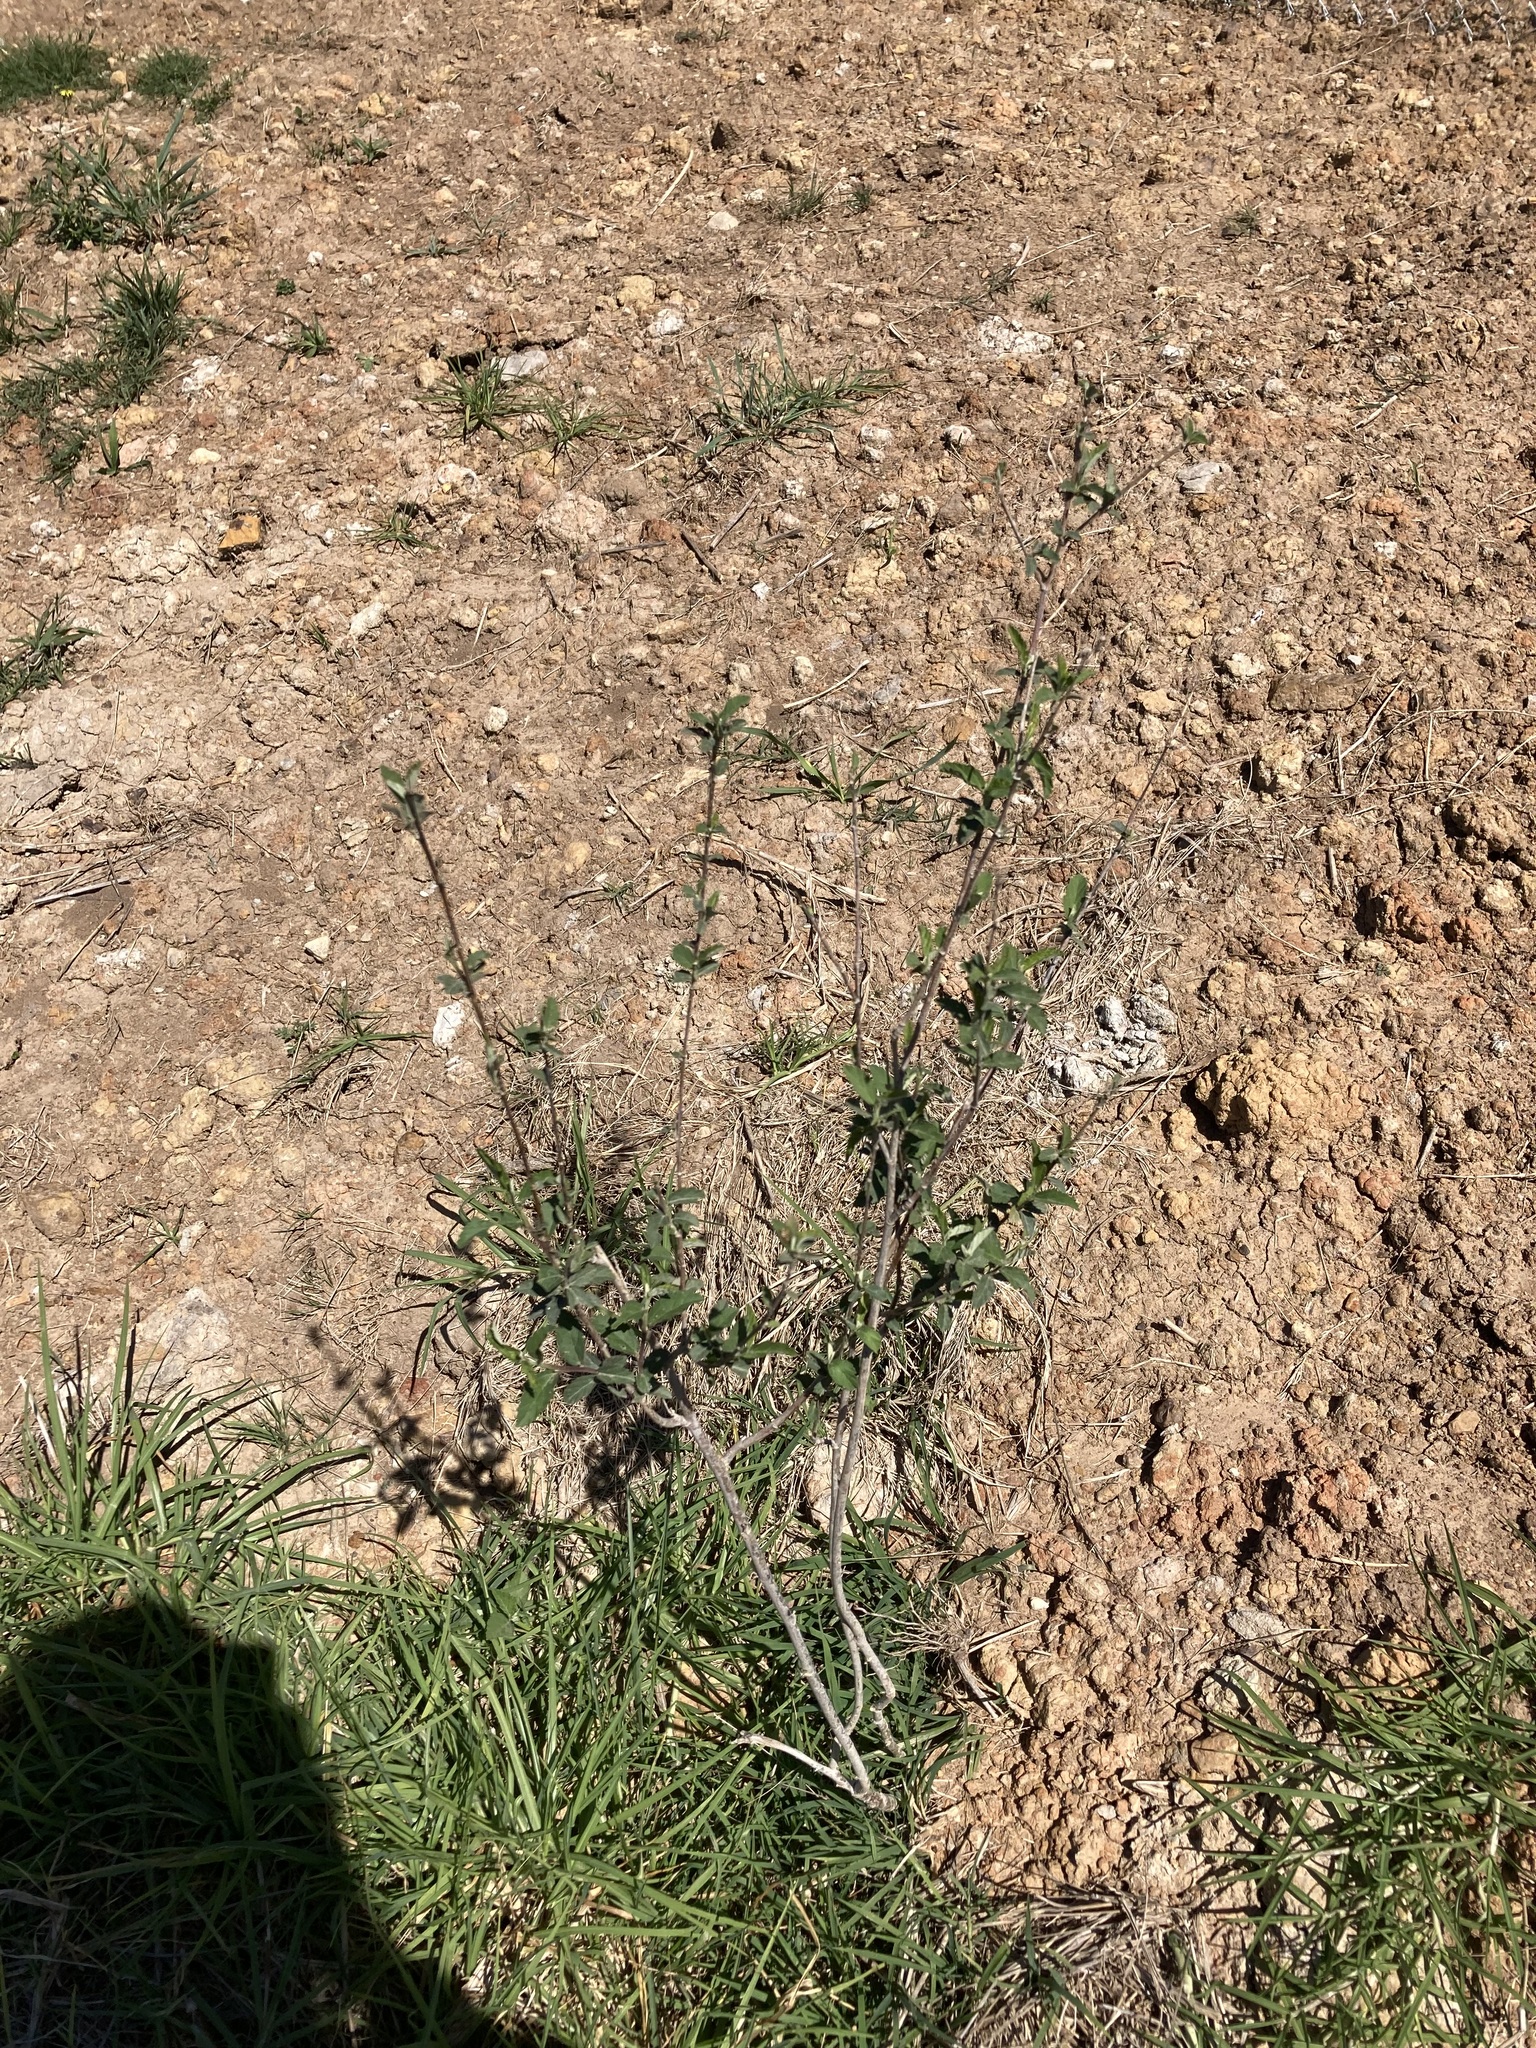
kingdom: Plantae
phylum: Tracheophyta
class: Magnoliopsida
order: Malvales
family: Malvaceae
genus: Sida
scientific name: Sida rhombifolia
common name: Queensland-hemp
